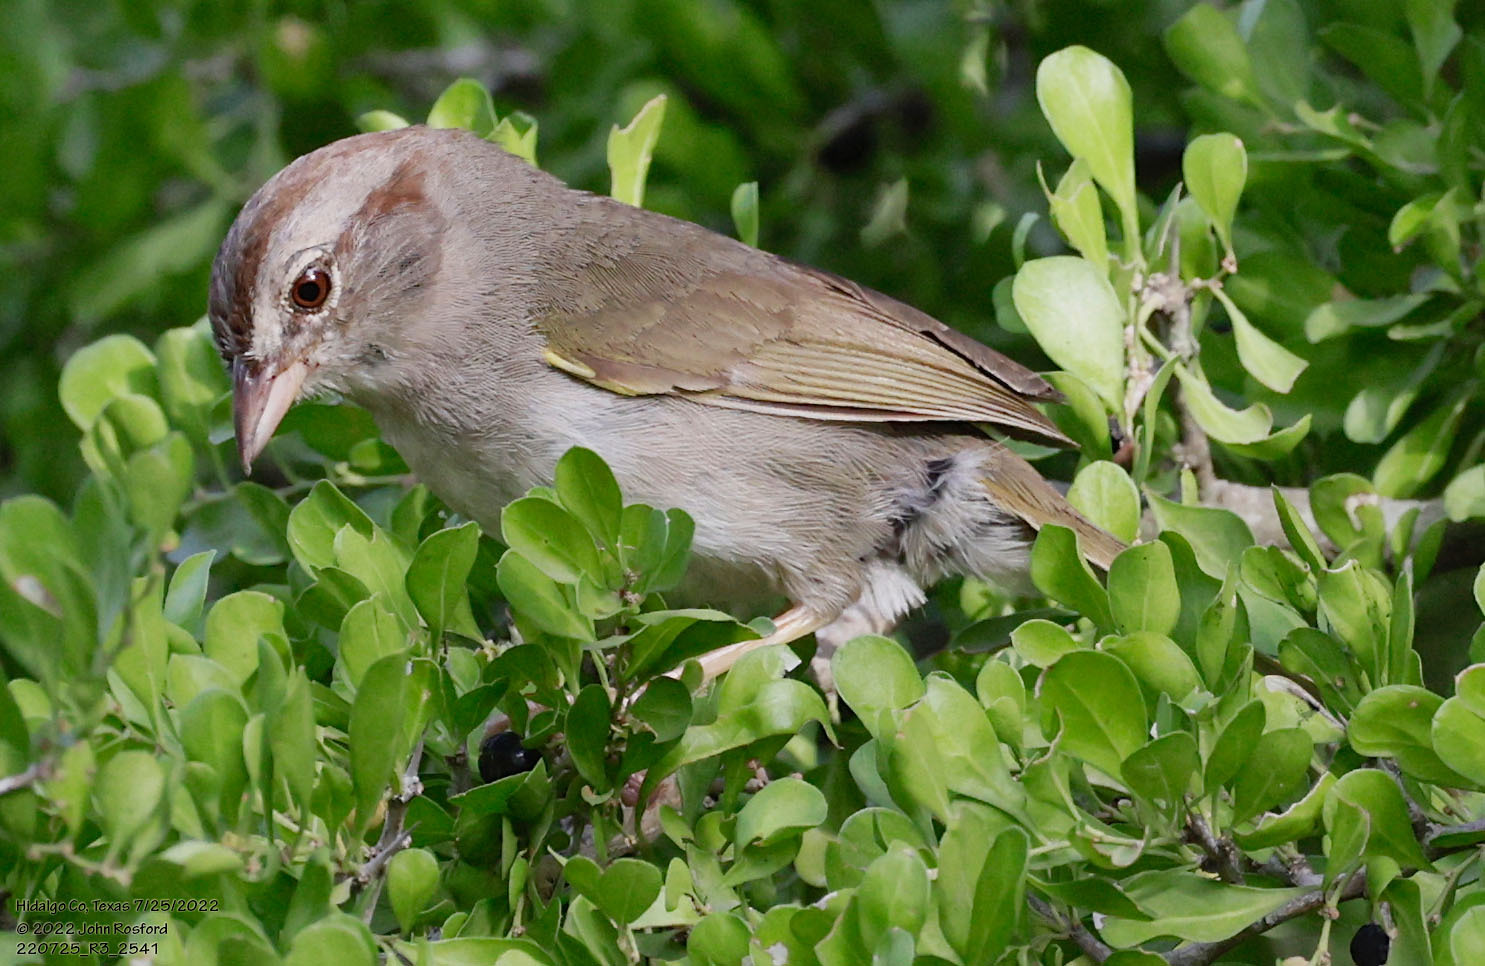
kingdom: Animalia
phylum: Chordata
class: Aves
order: Passeriformes
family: Passerellidae
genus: Arremonops
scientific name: Arremonops rufivirgatus
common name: Olive sparrow
